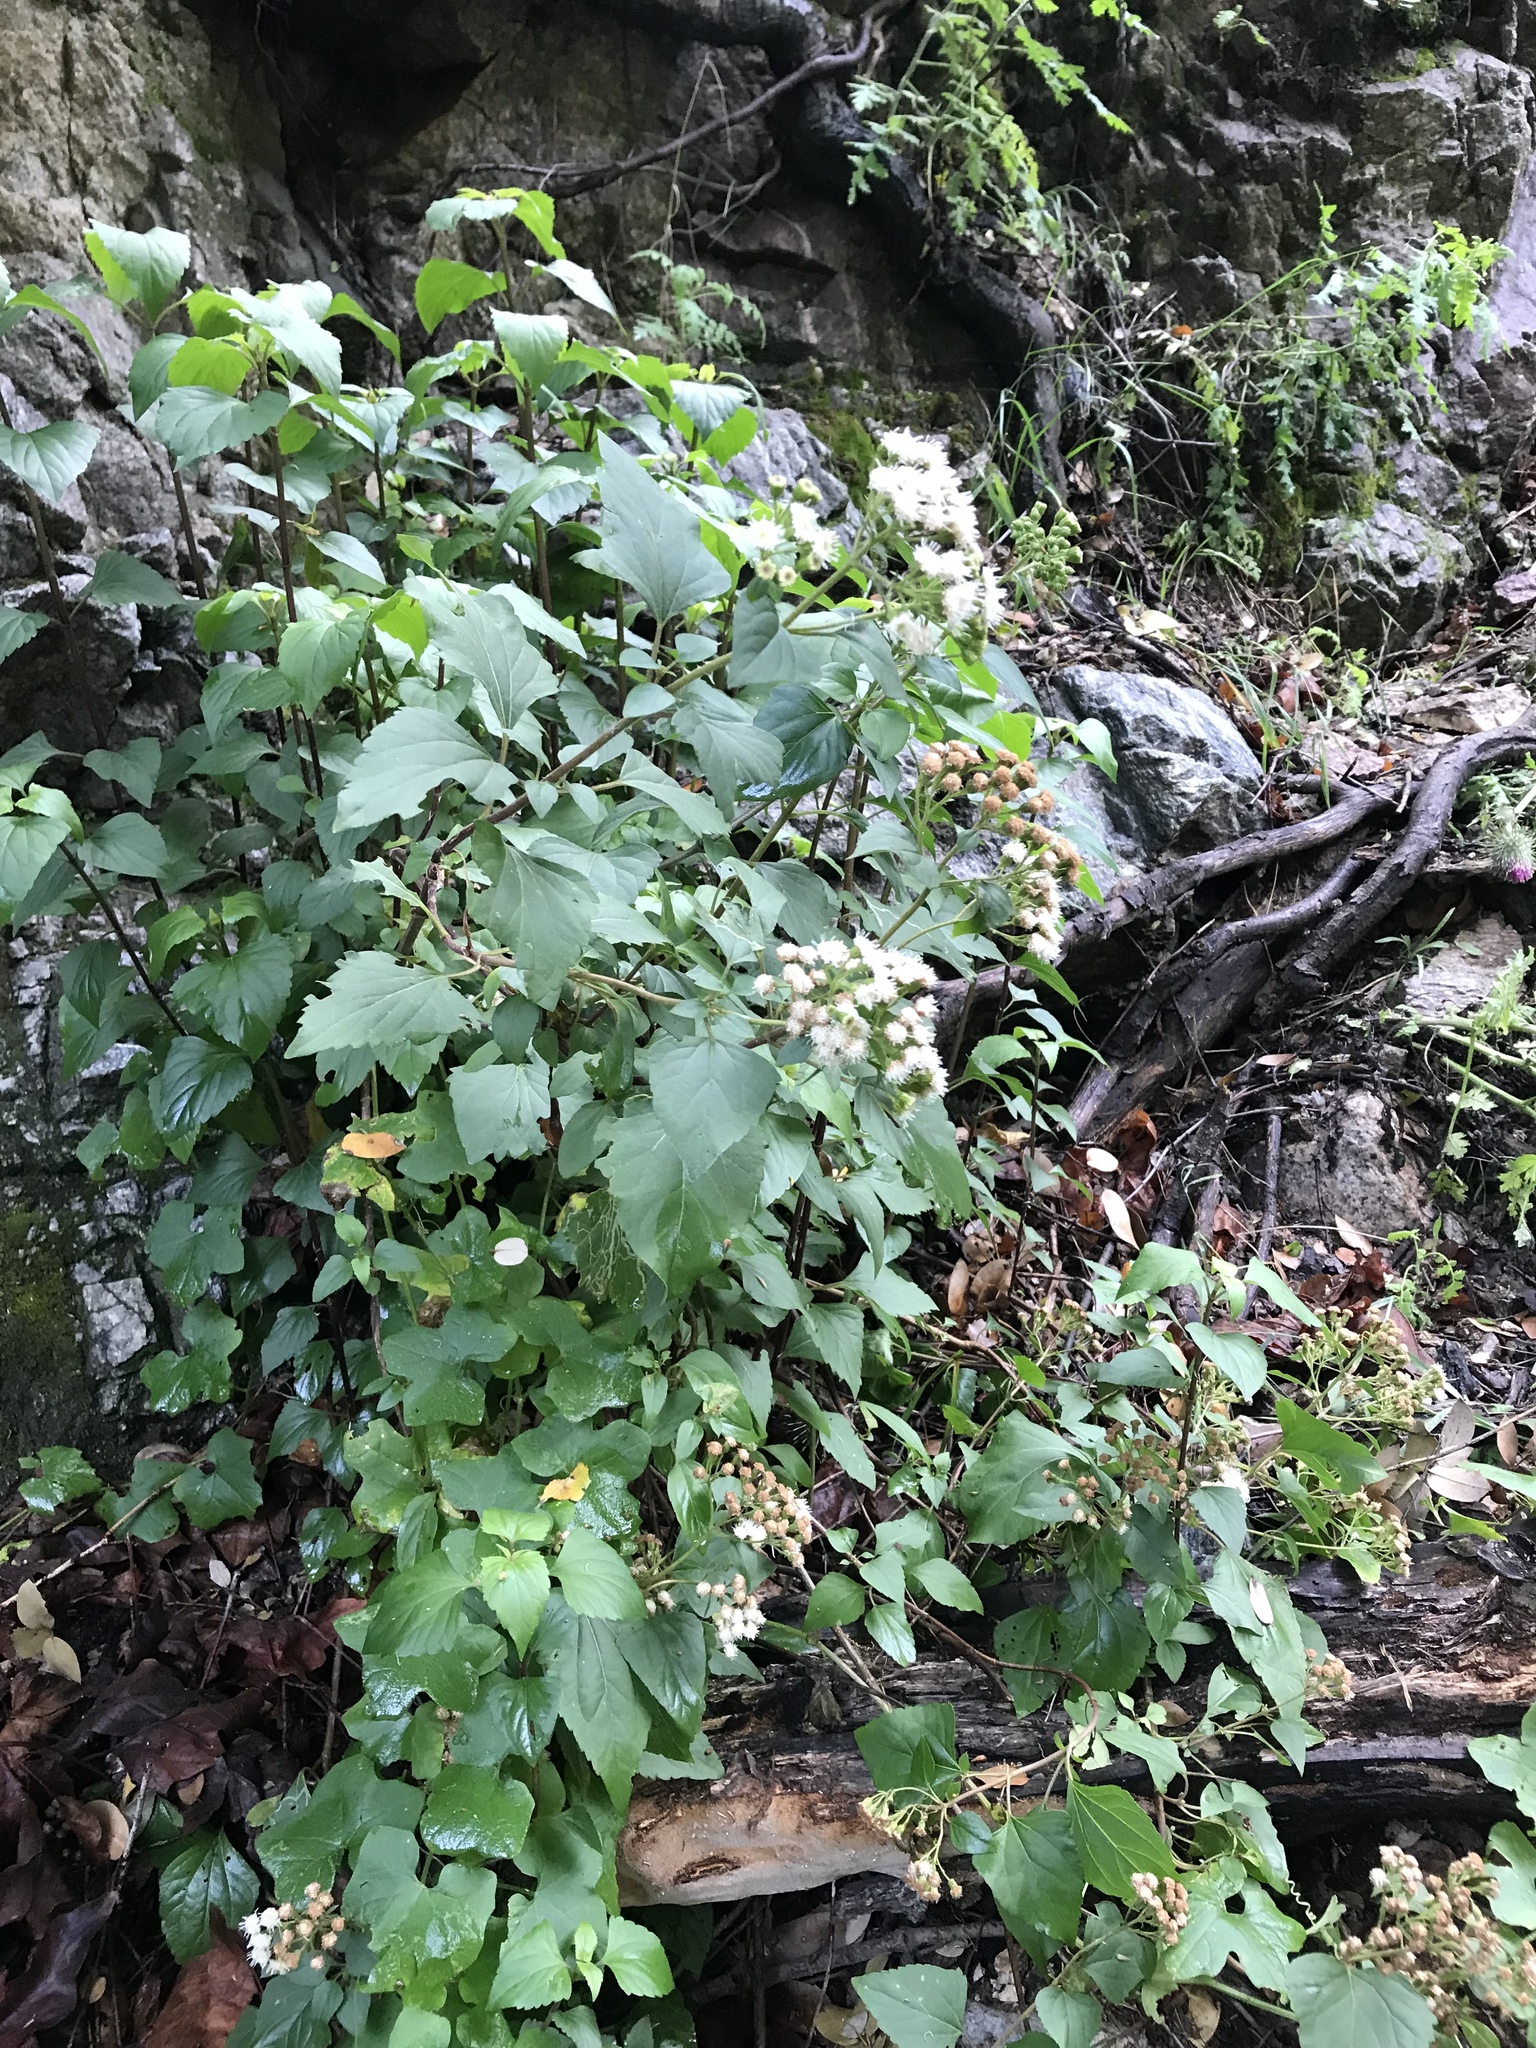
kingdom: Plantae
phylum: Tracheophyta
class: Magnoliopsida
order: Asterales
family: Asteraceae
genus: Ageratina
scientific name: Ageratina adenophora
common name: Sticky snakeroot
